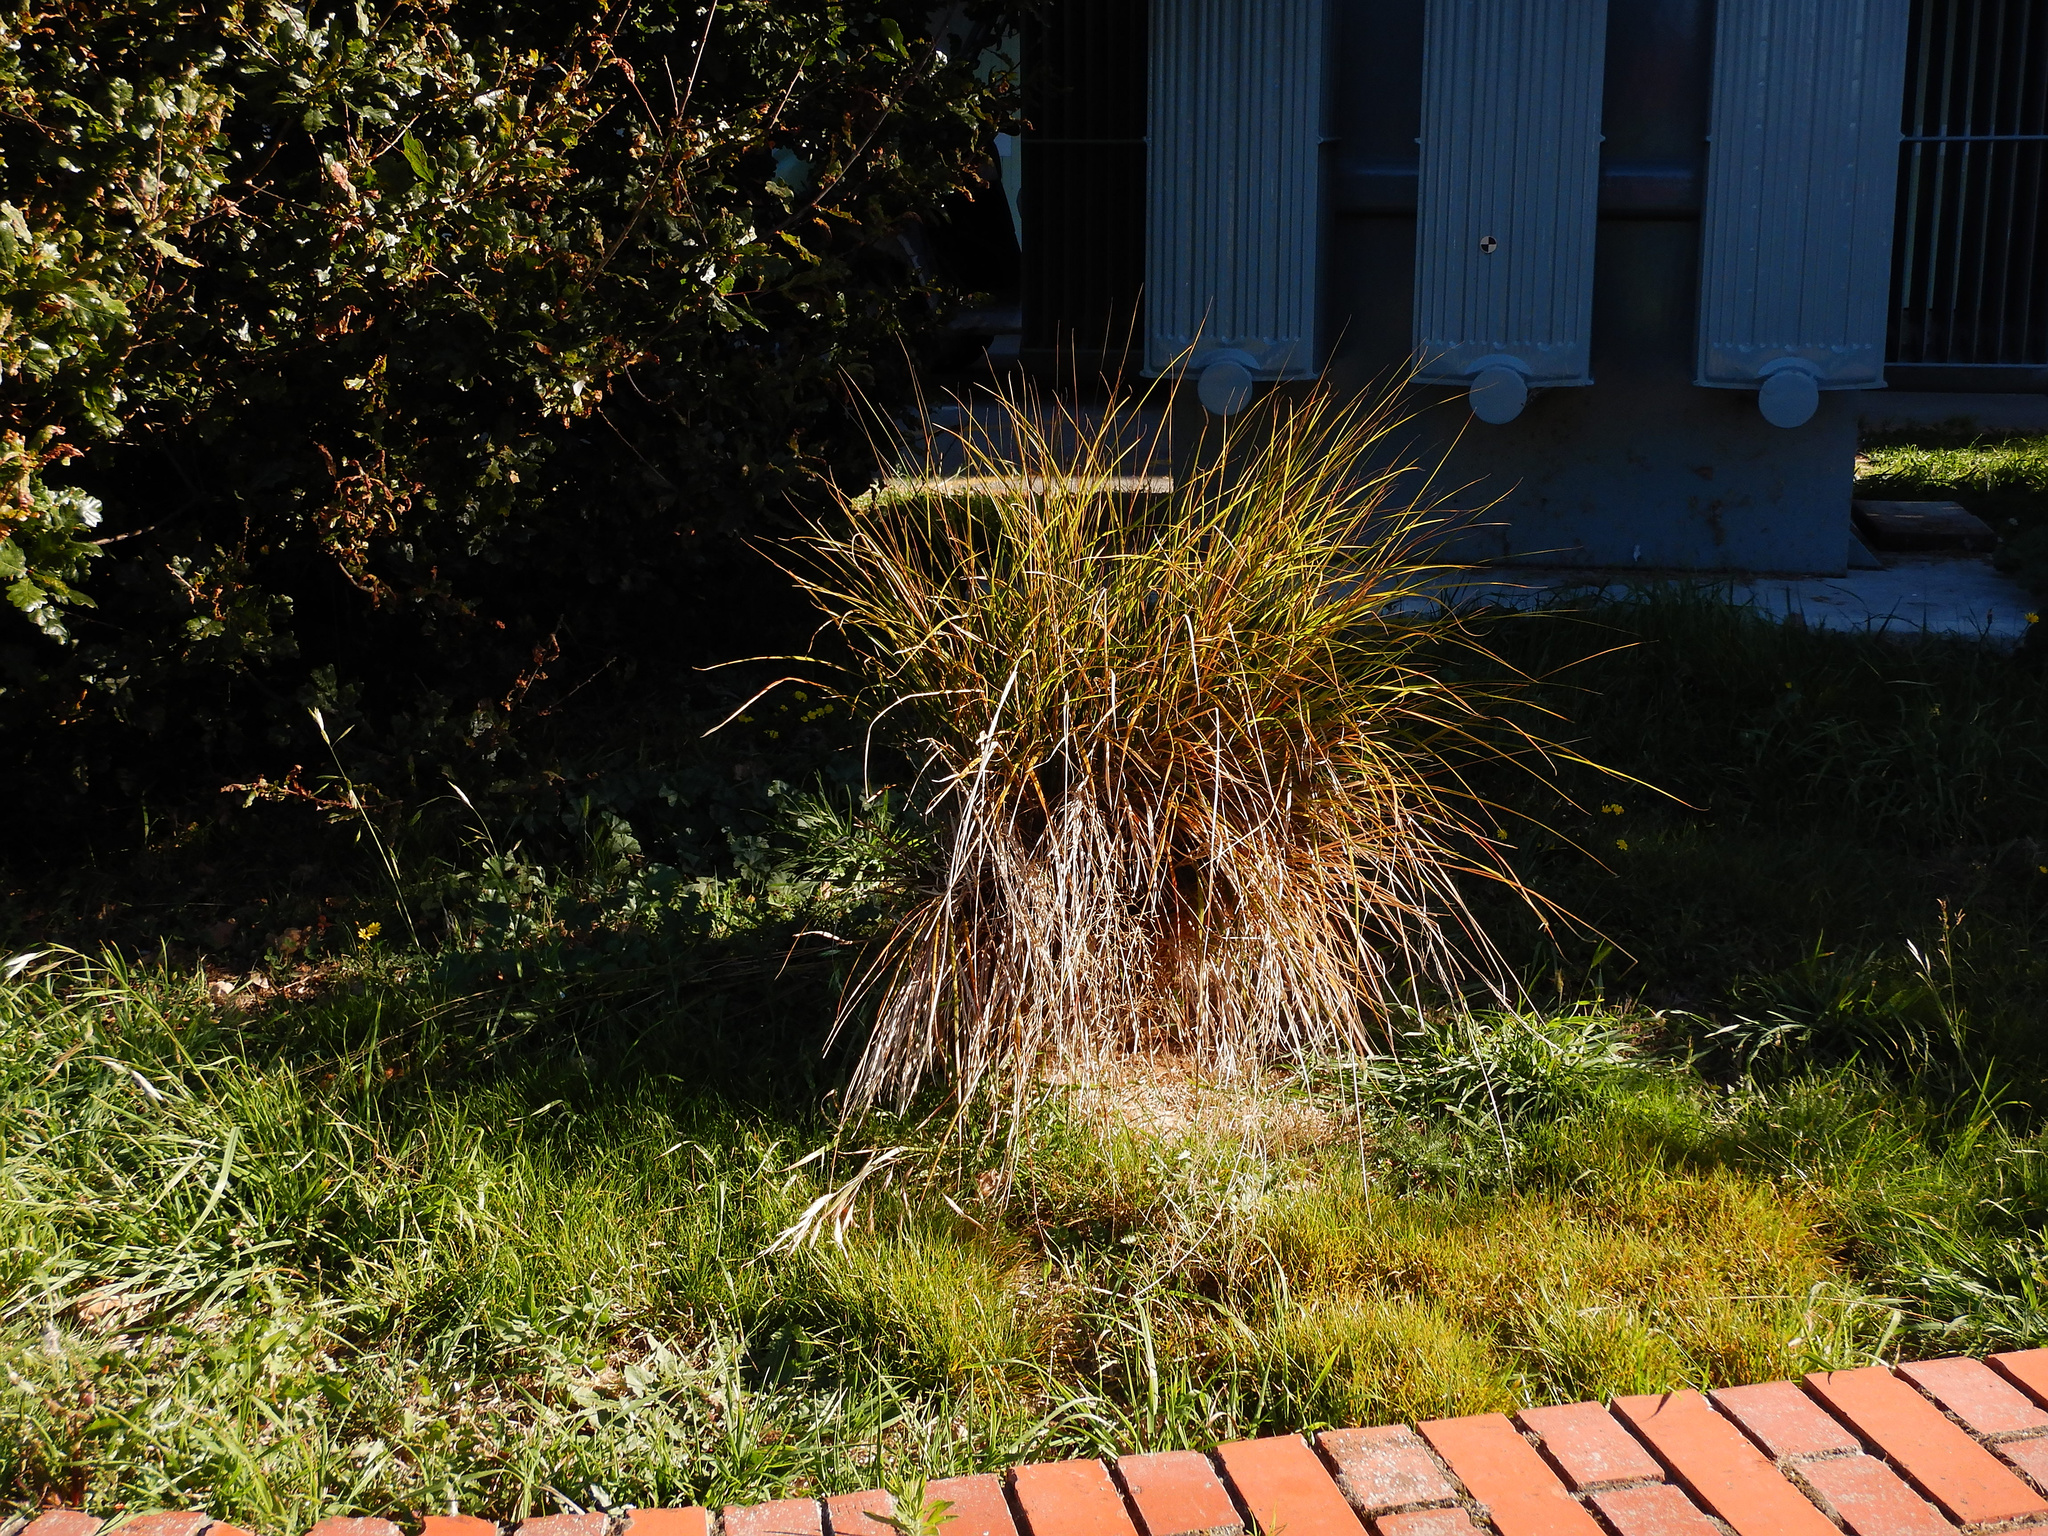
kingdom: Plantae
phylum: Tracheophyta
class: Liliopsida
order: Poales
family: Poaceae
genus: Anemanthele
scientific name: Anemanthele lessoniana
